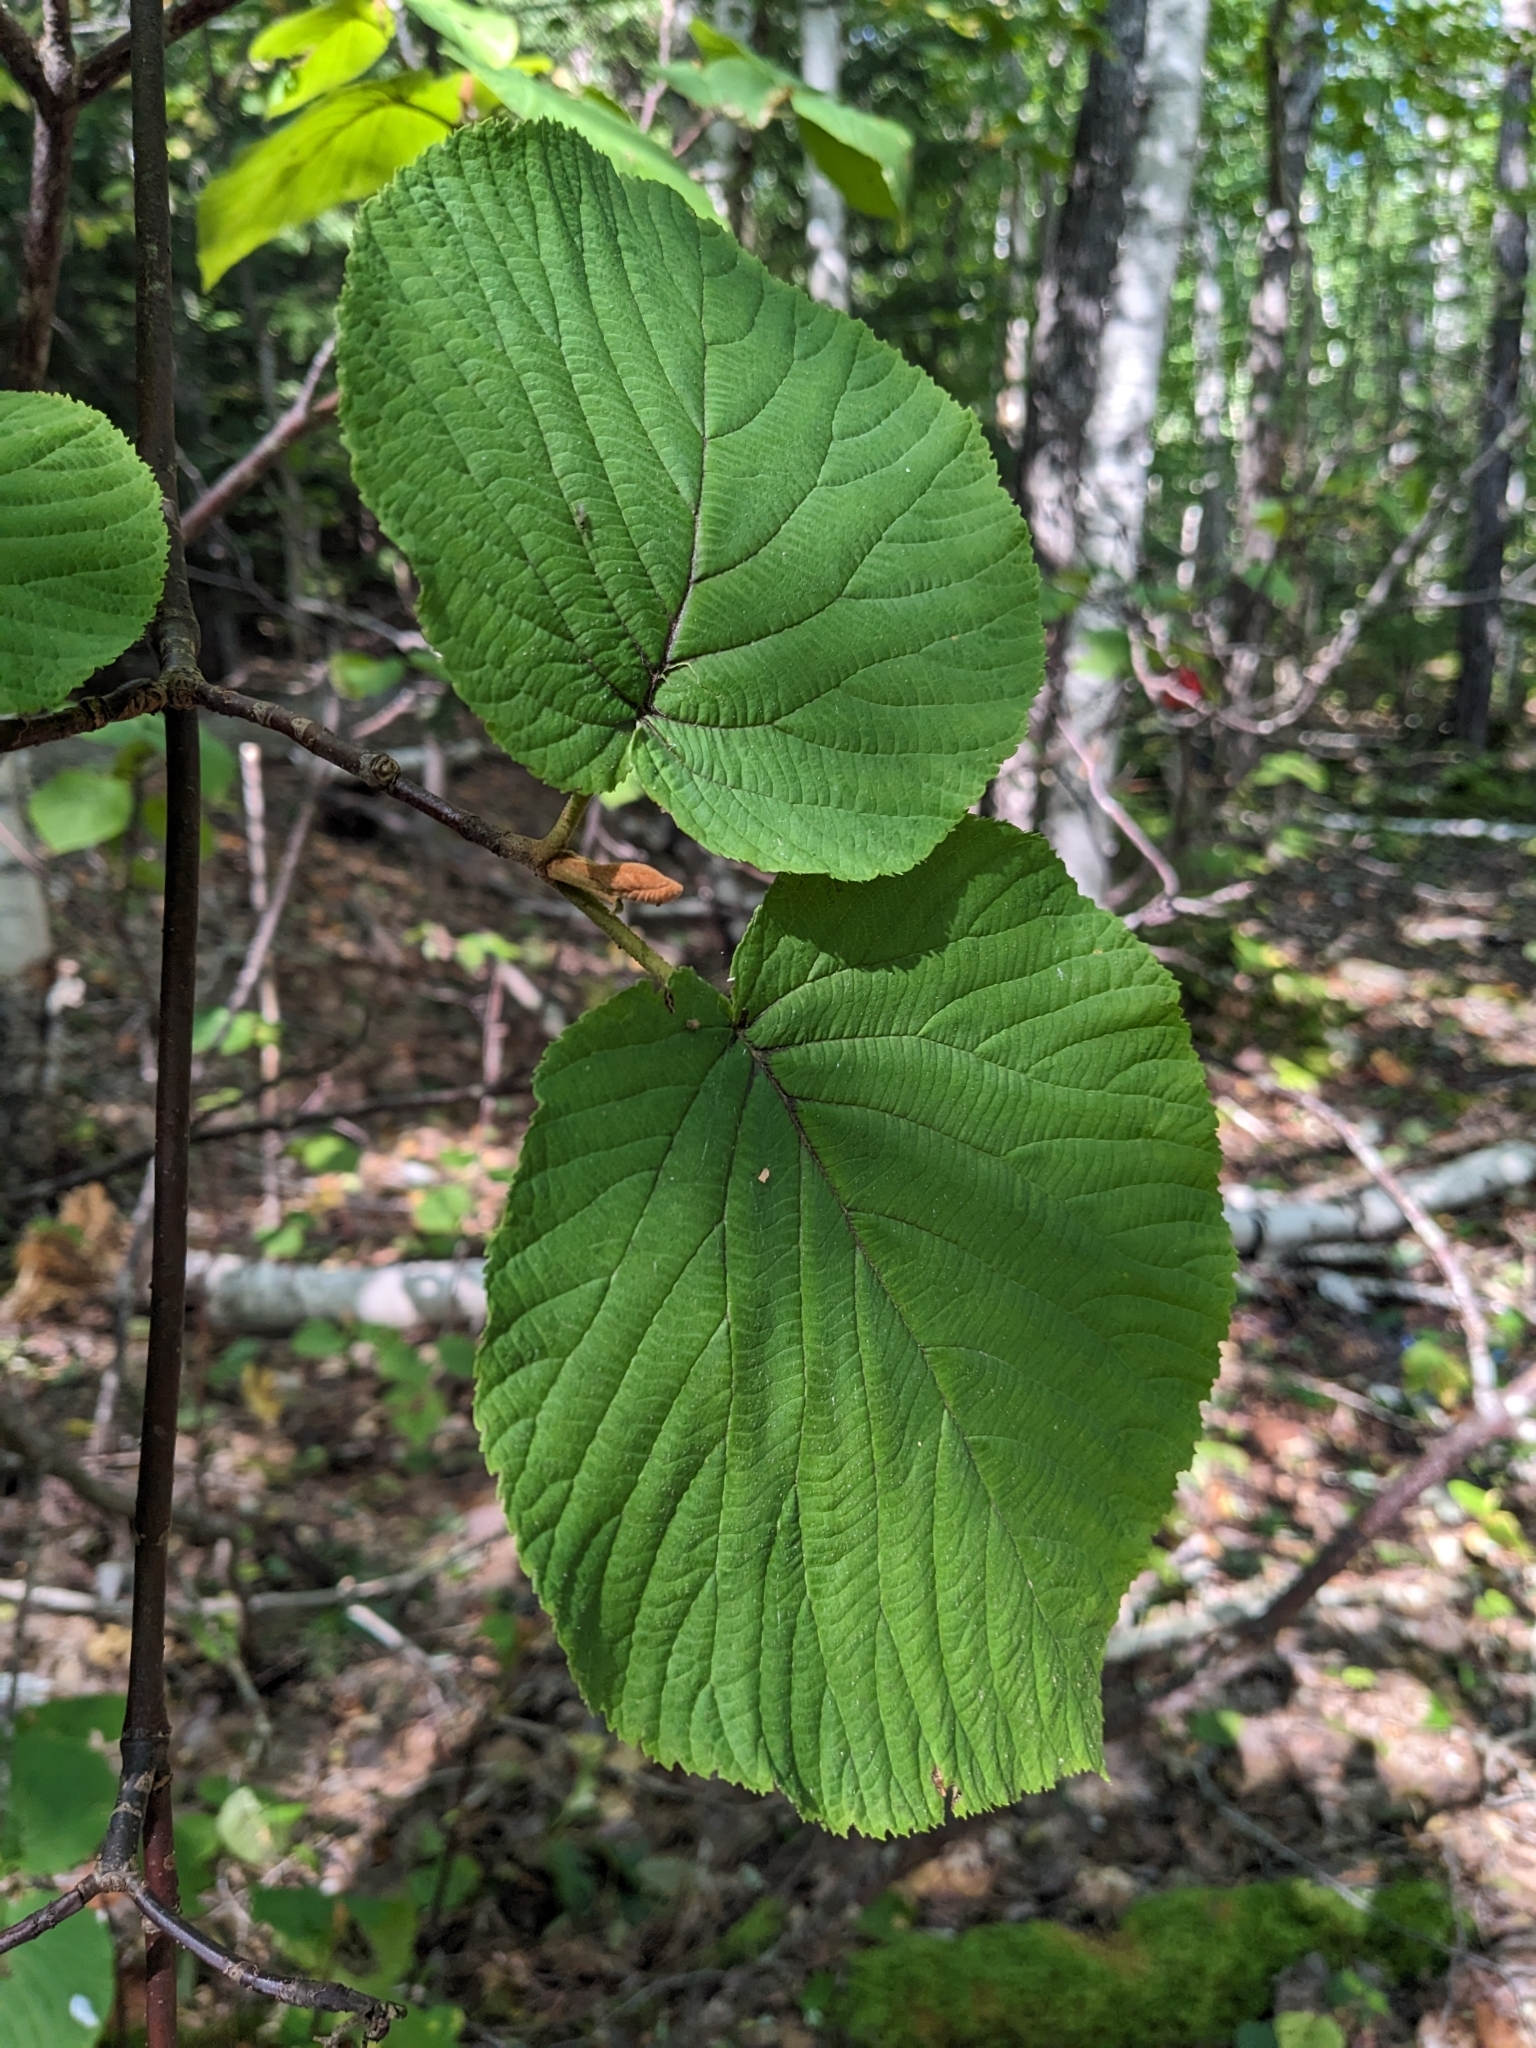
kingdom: Plantae
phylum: Tracheophyta
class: Magnoliopsida
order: Dipsacales
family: Viburnaceae
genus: Viburnum
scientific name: Viburnum lantanoides
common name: Hobblebush
